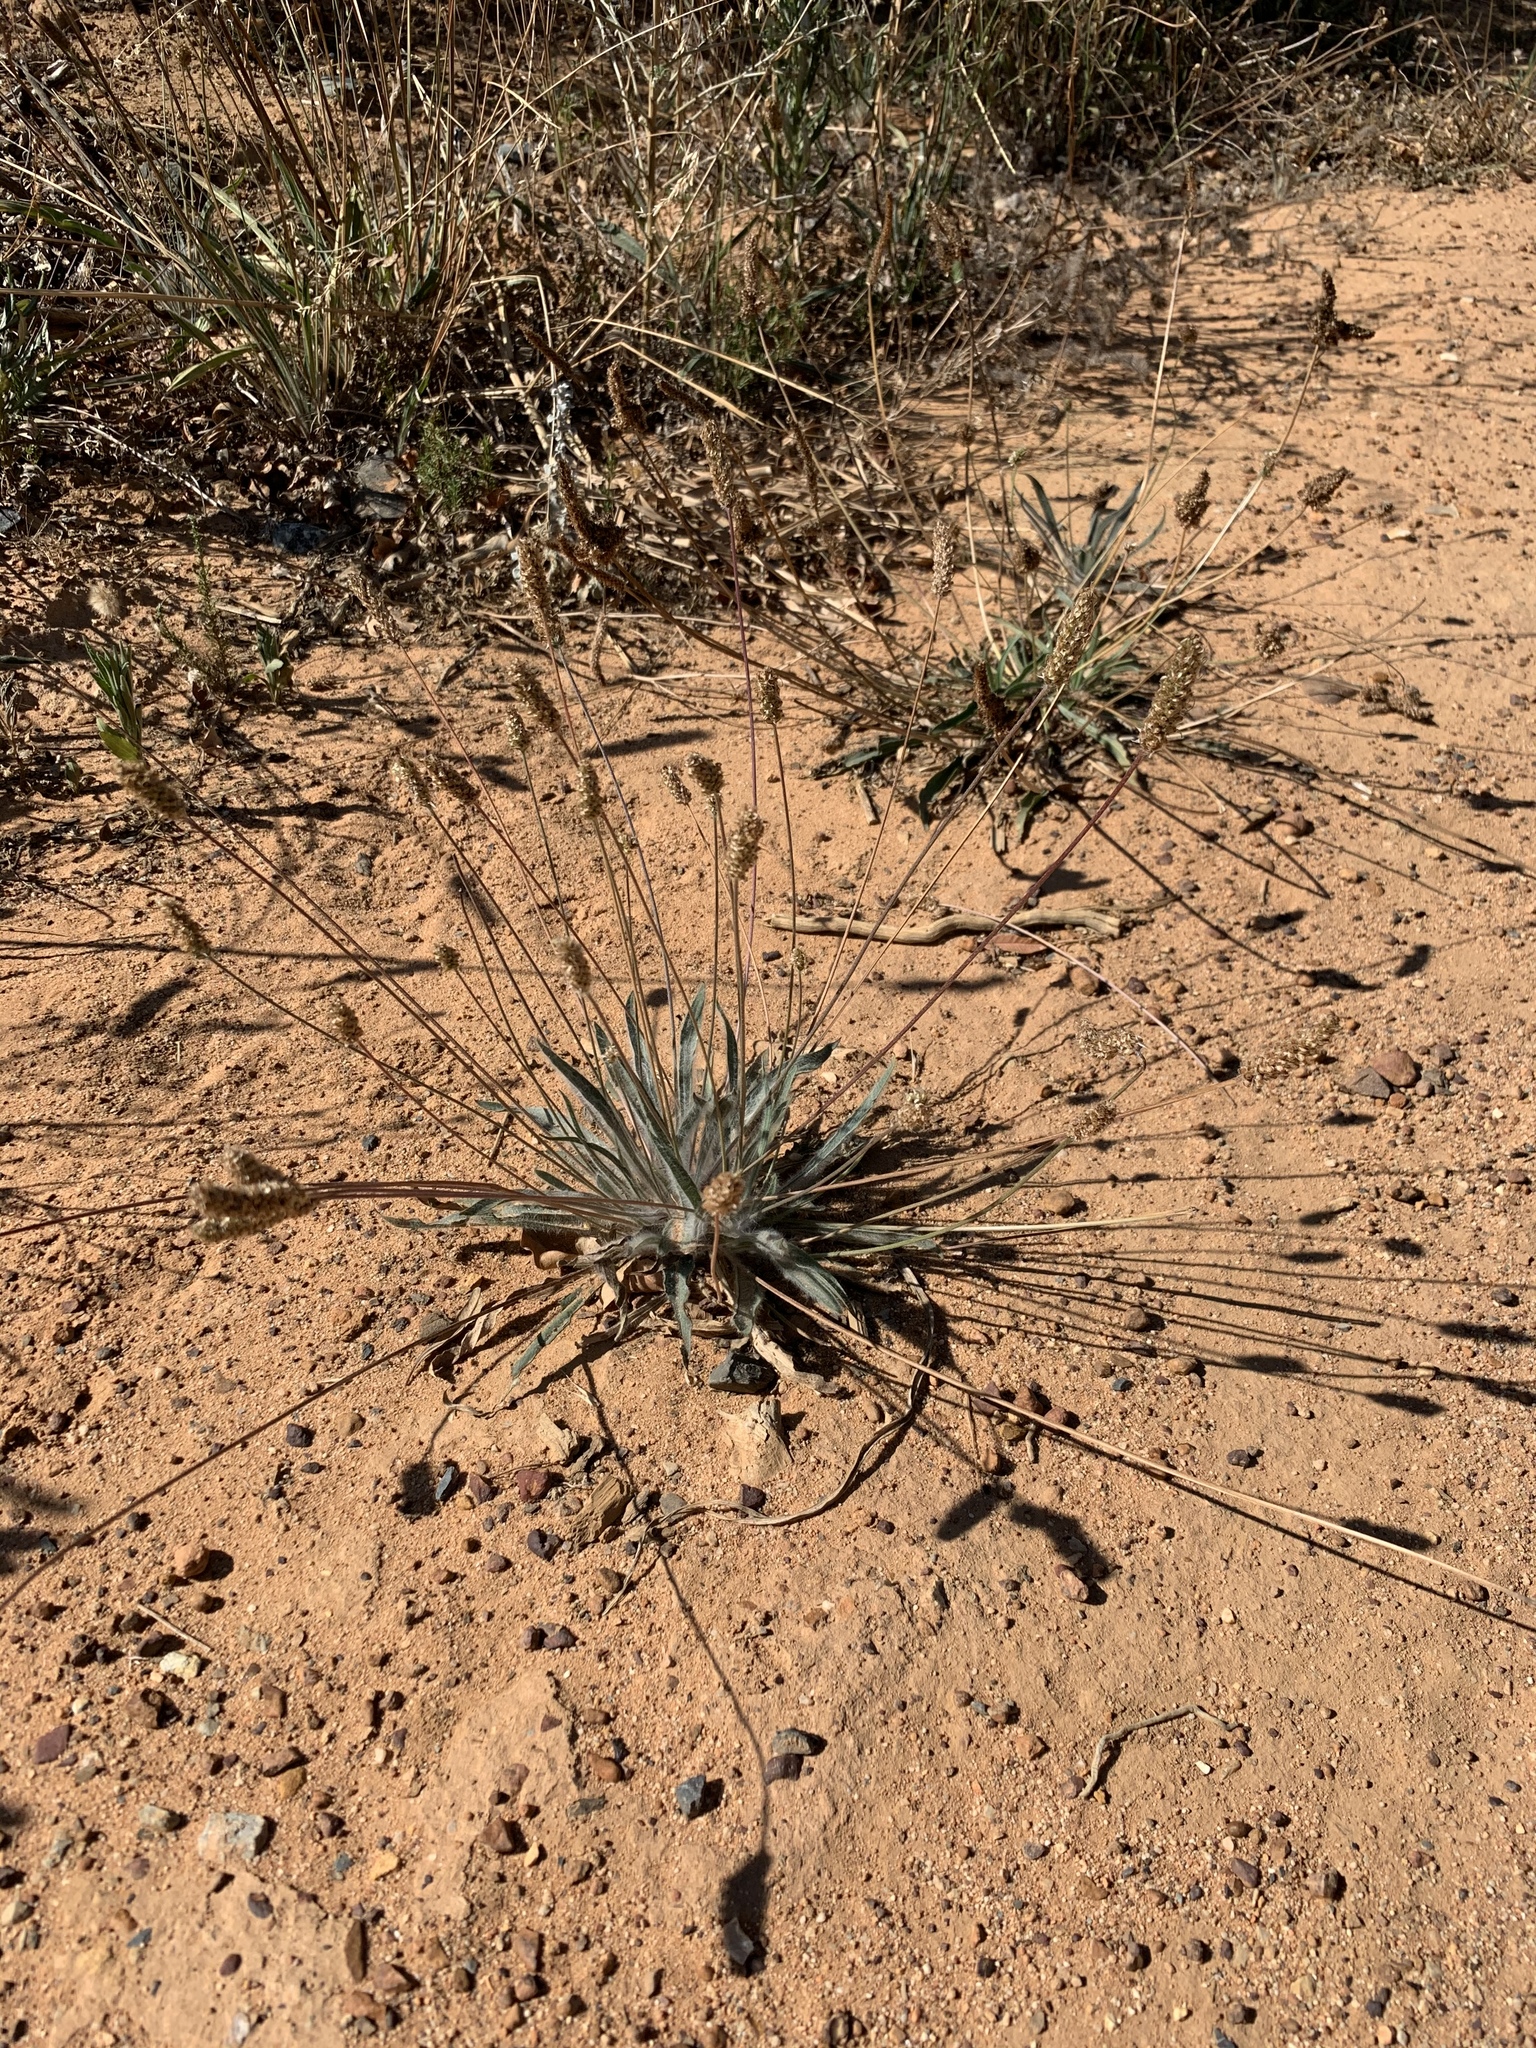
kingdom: Plantae
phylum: Tracheophyta
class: Magnoliopsida
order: Lamiales
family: Plantaginaceae
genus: Plantago
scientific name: Plantago lanceolata
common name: Ribwort plantain
